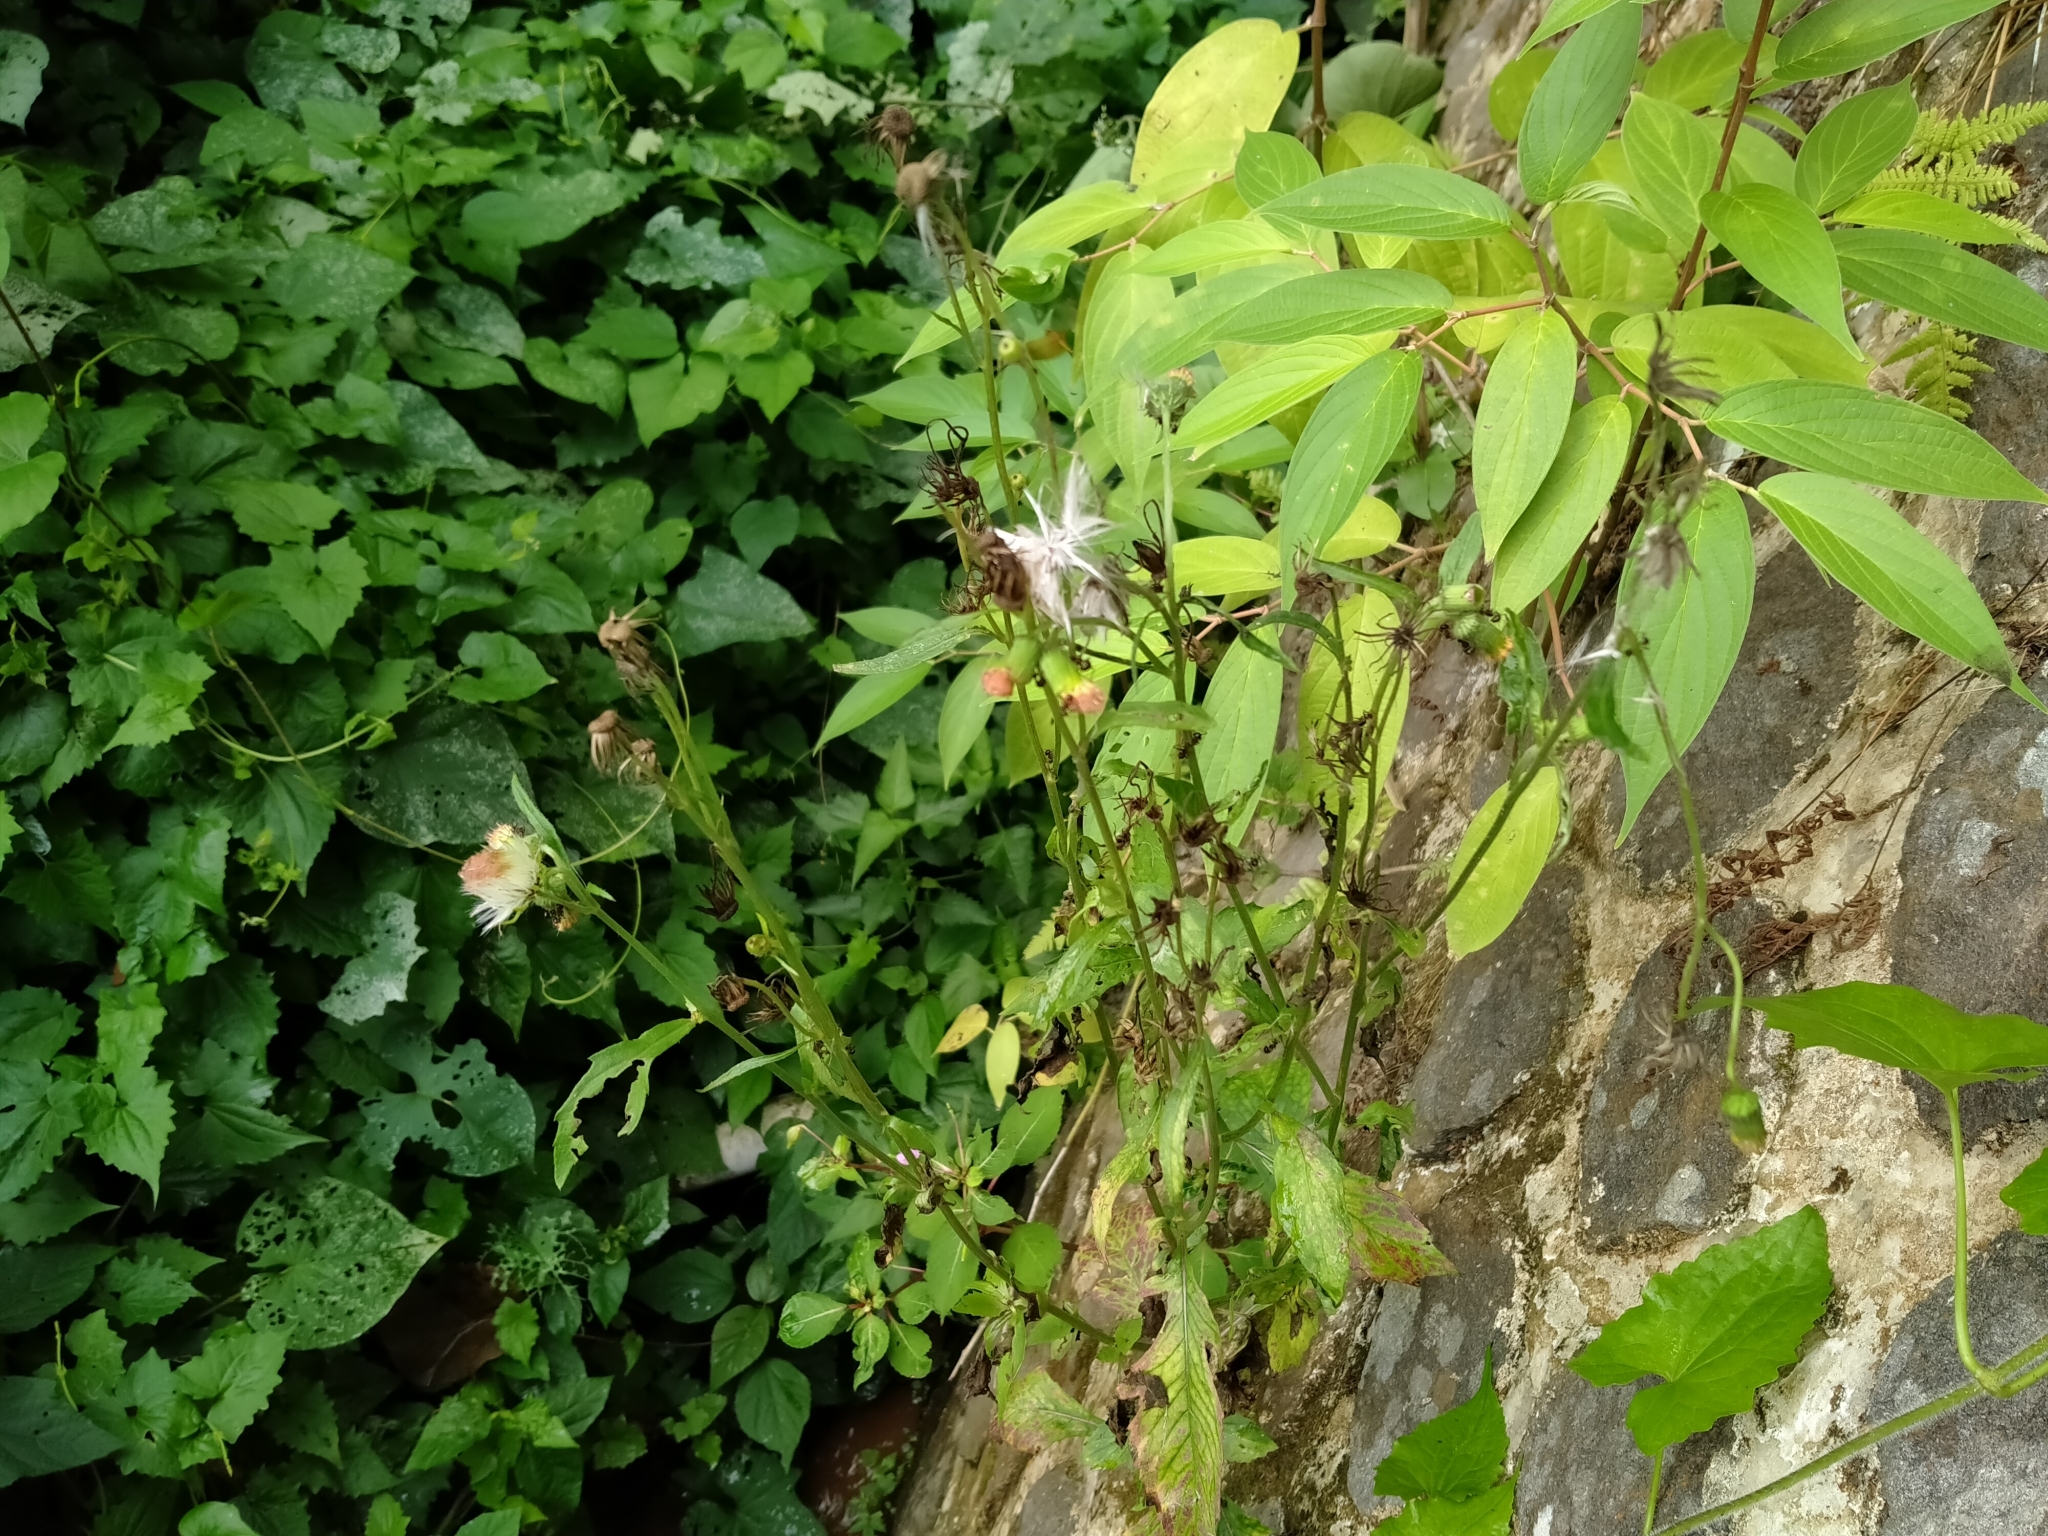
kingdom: Plantae
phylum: Tracheophyta
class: Magnoliopsida
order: Asterales
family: Asteraceae
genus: Crassocephalum
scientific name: Crassocephalum crepidioides
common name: Redflower ragleaf
